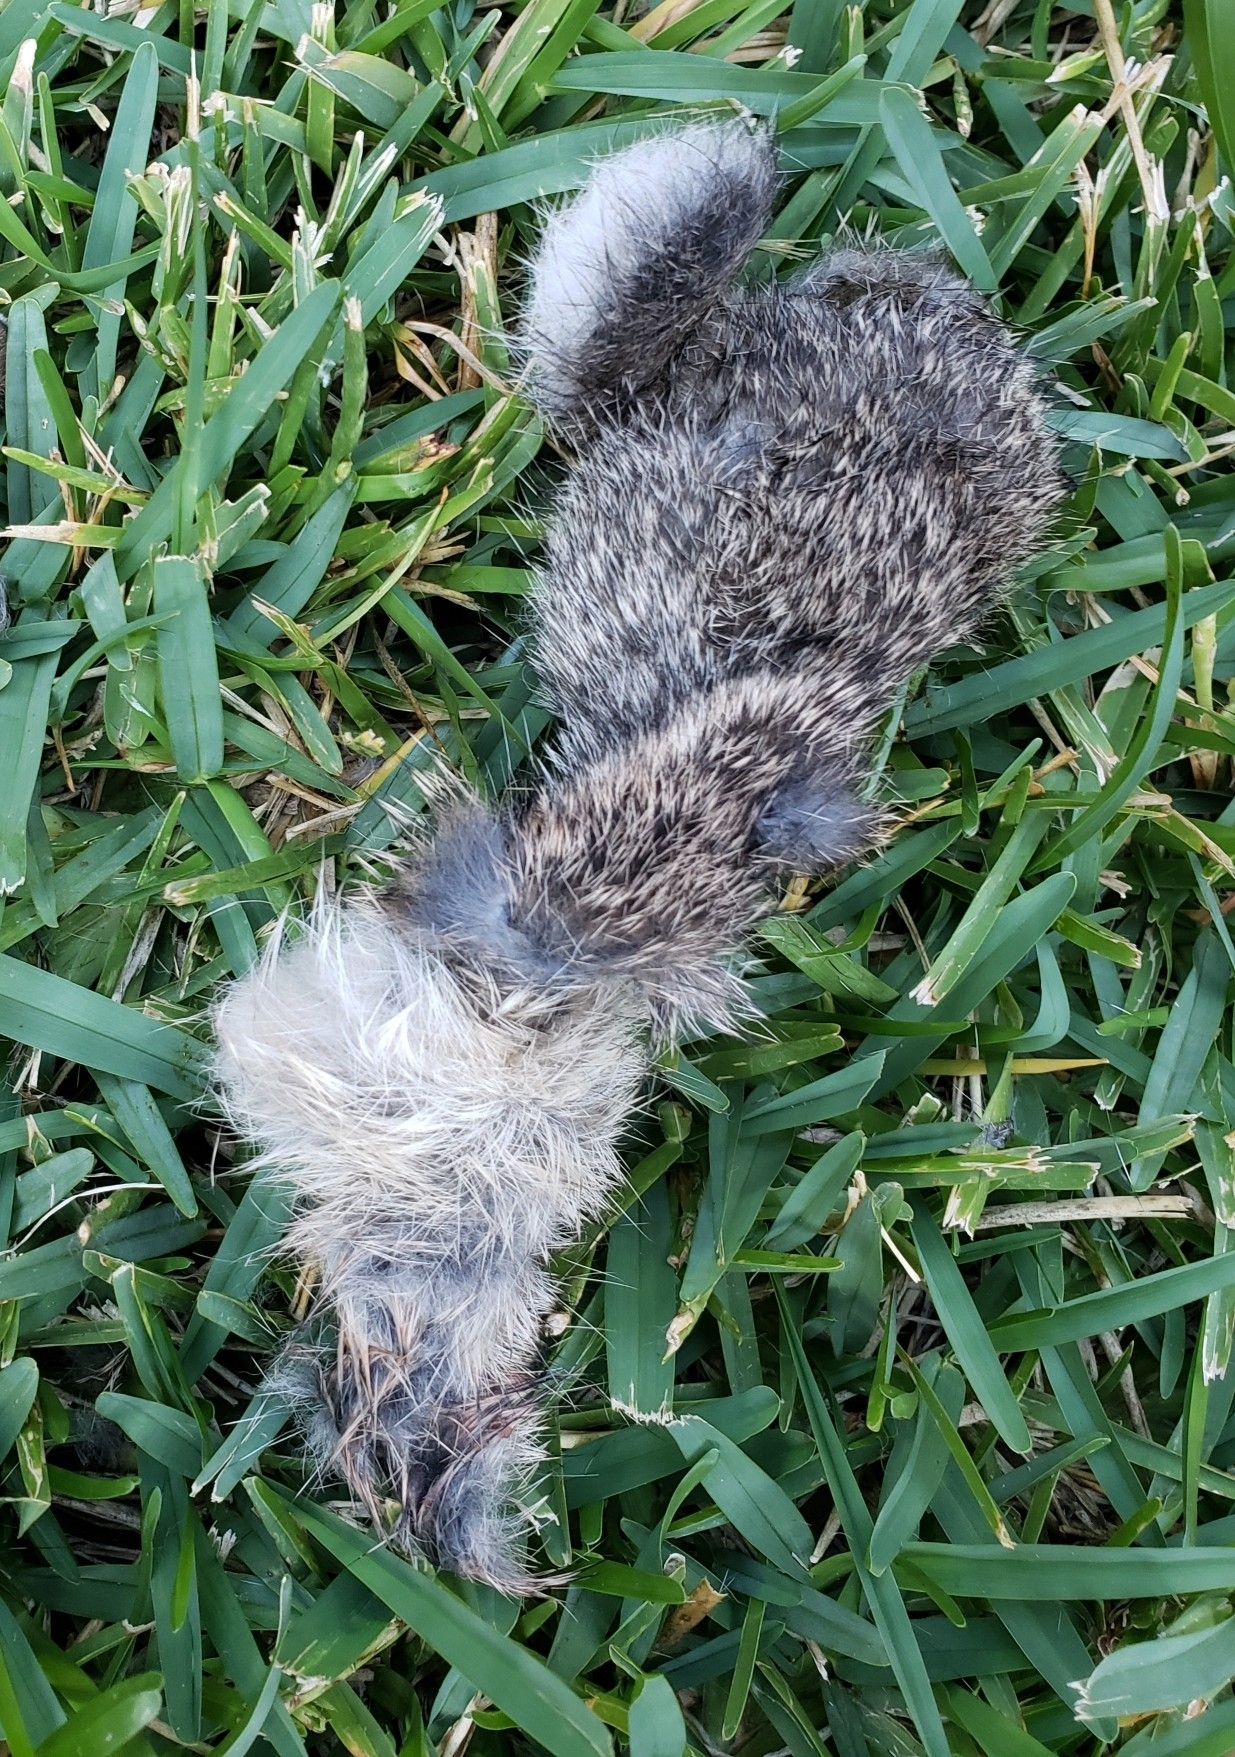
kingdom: Animalia
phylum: Chordata
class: Mammalia
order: Lagomorpha
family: Leporidae
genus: Sylvilagus
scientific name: Sylvilagus floridanus
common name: Eastern cottontail
